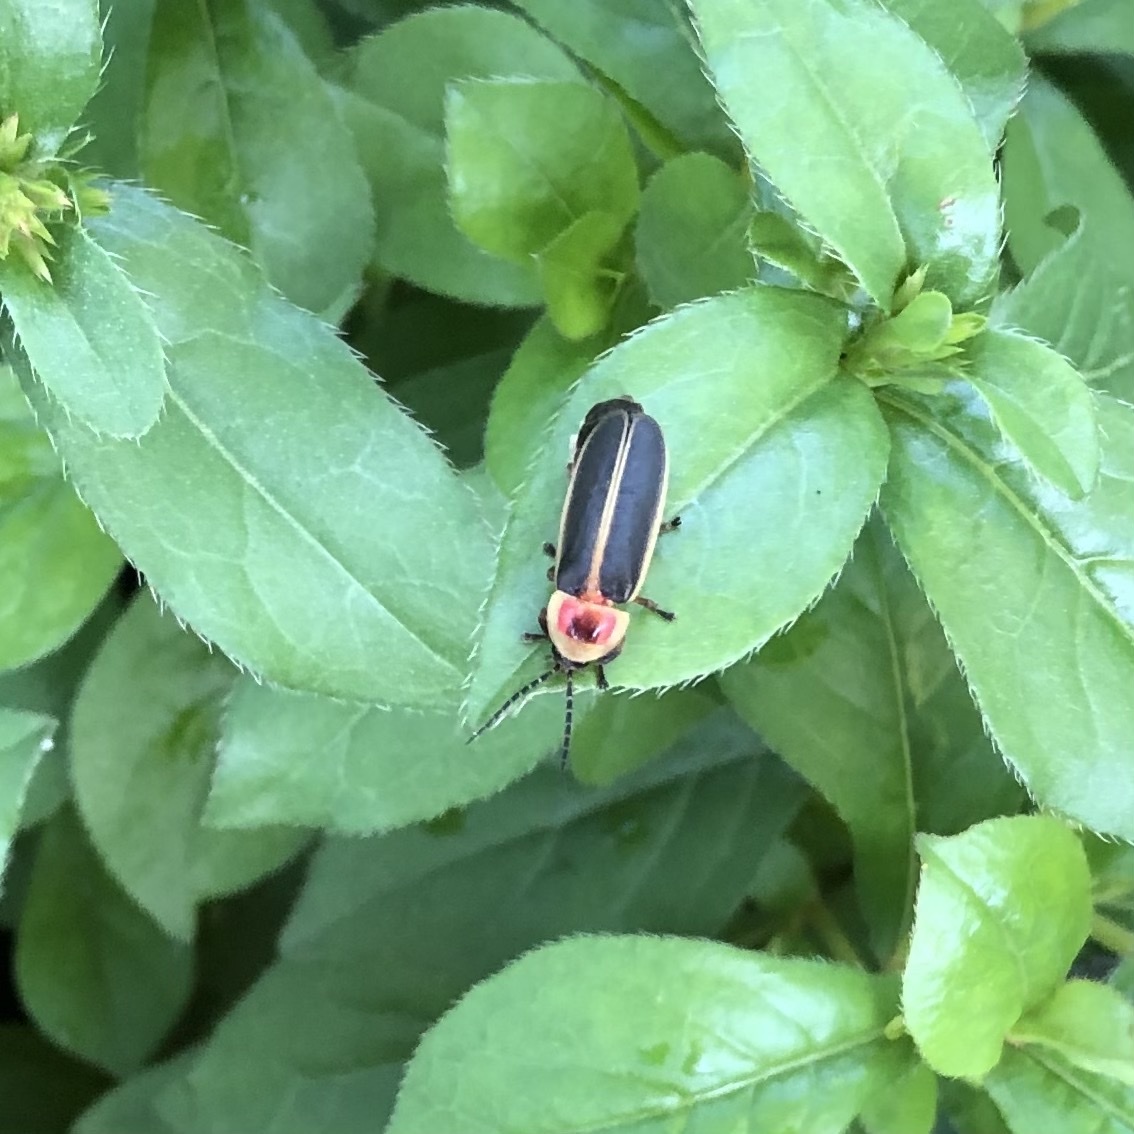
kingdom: Animalia
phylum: Arthropoda
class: Insecta
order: Coleoptera
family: Lampyridae
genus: Photinus
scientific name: Photinus pyralis
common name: Big dipper firefly
